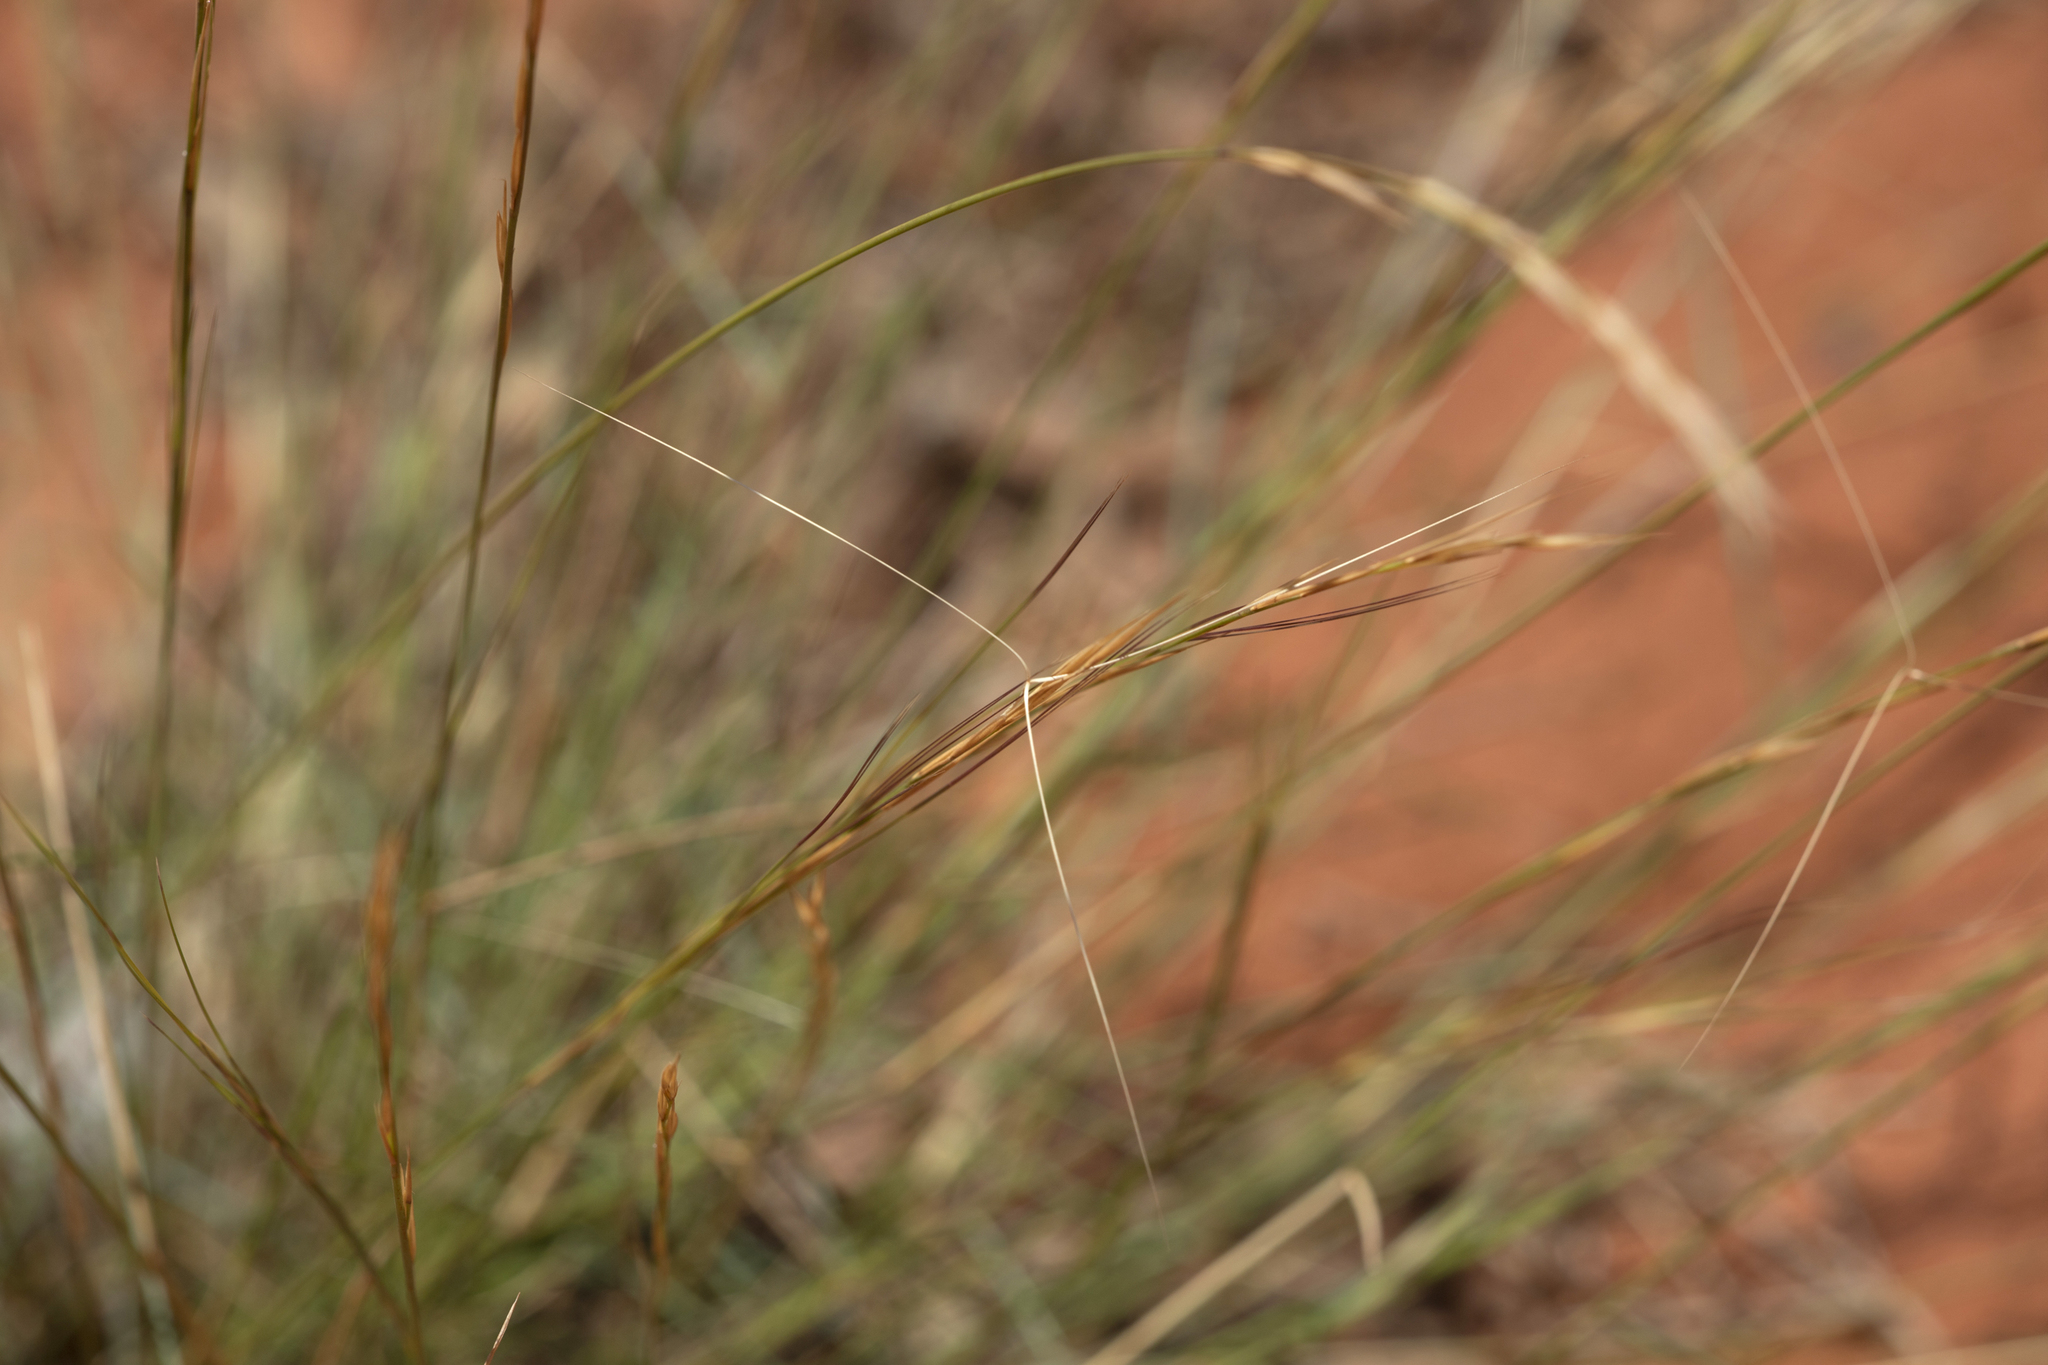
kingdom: Plantae
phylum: Tracheophyta
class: Liliopsida
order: Poales
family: Poaceae
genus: Aristida
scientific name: Aristida holathera
